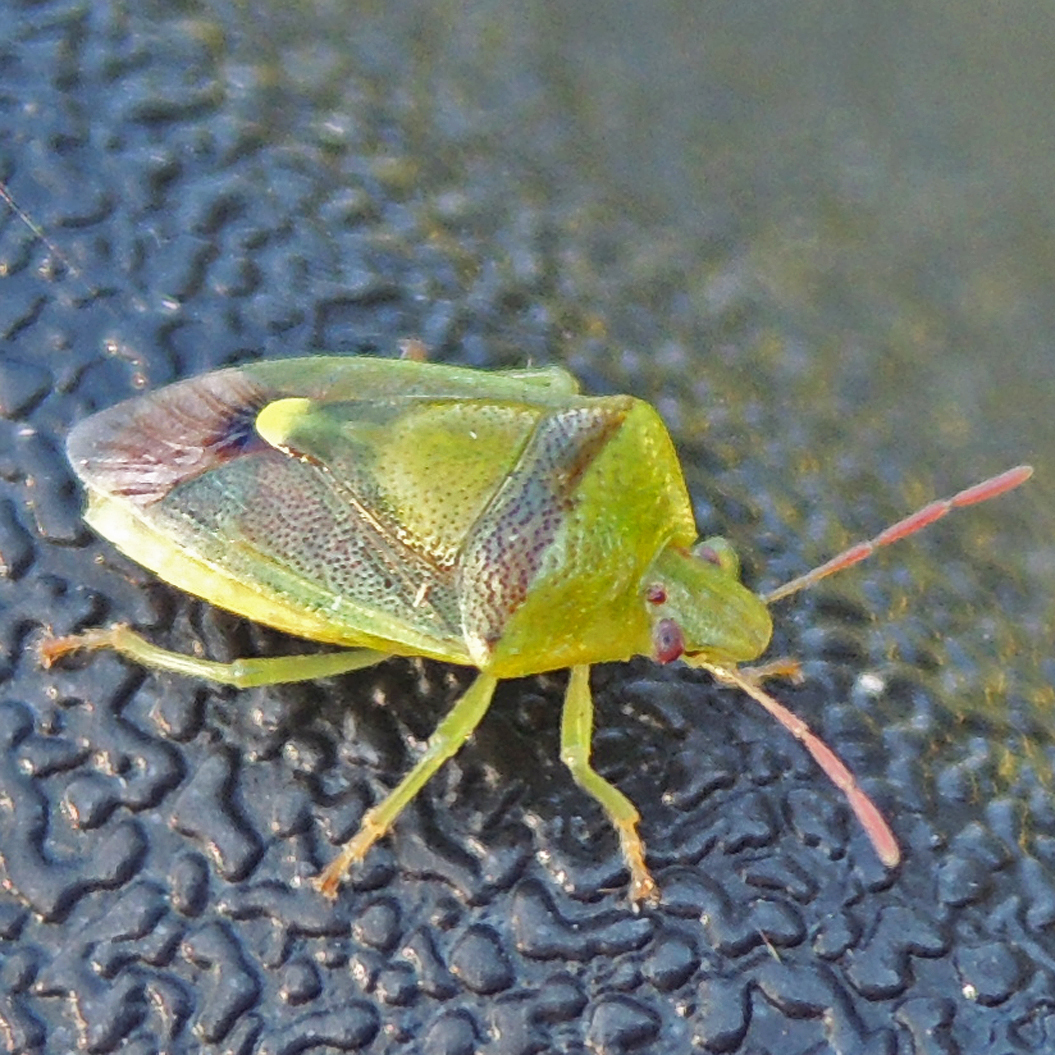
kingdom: Animalia
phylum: Arthropoda
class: Insecta
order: Hemiptera
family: Pentatomidae
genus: Banasa
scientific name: Banasa dimidiata
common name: Green burgundy stink bug
